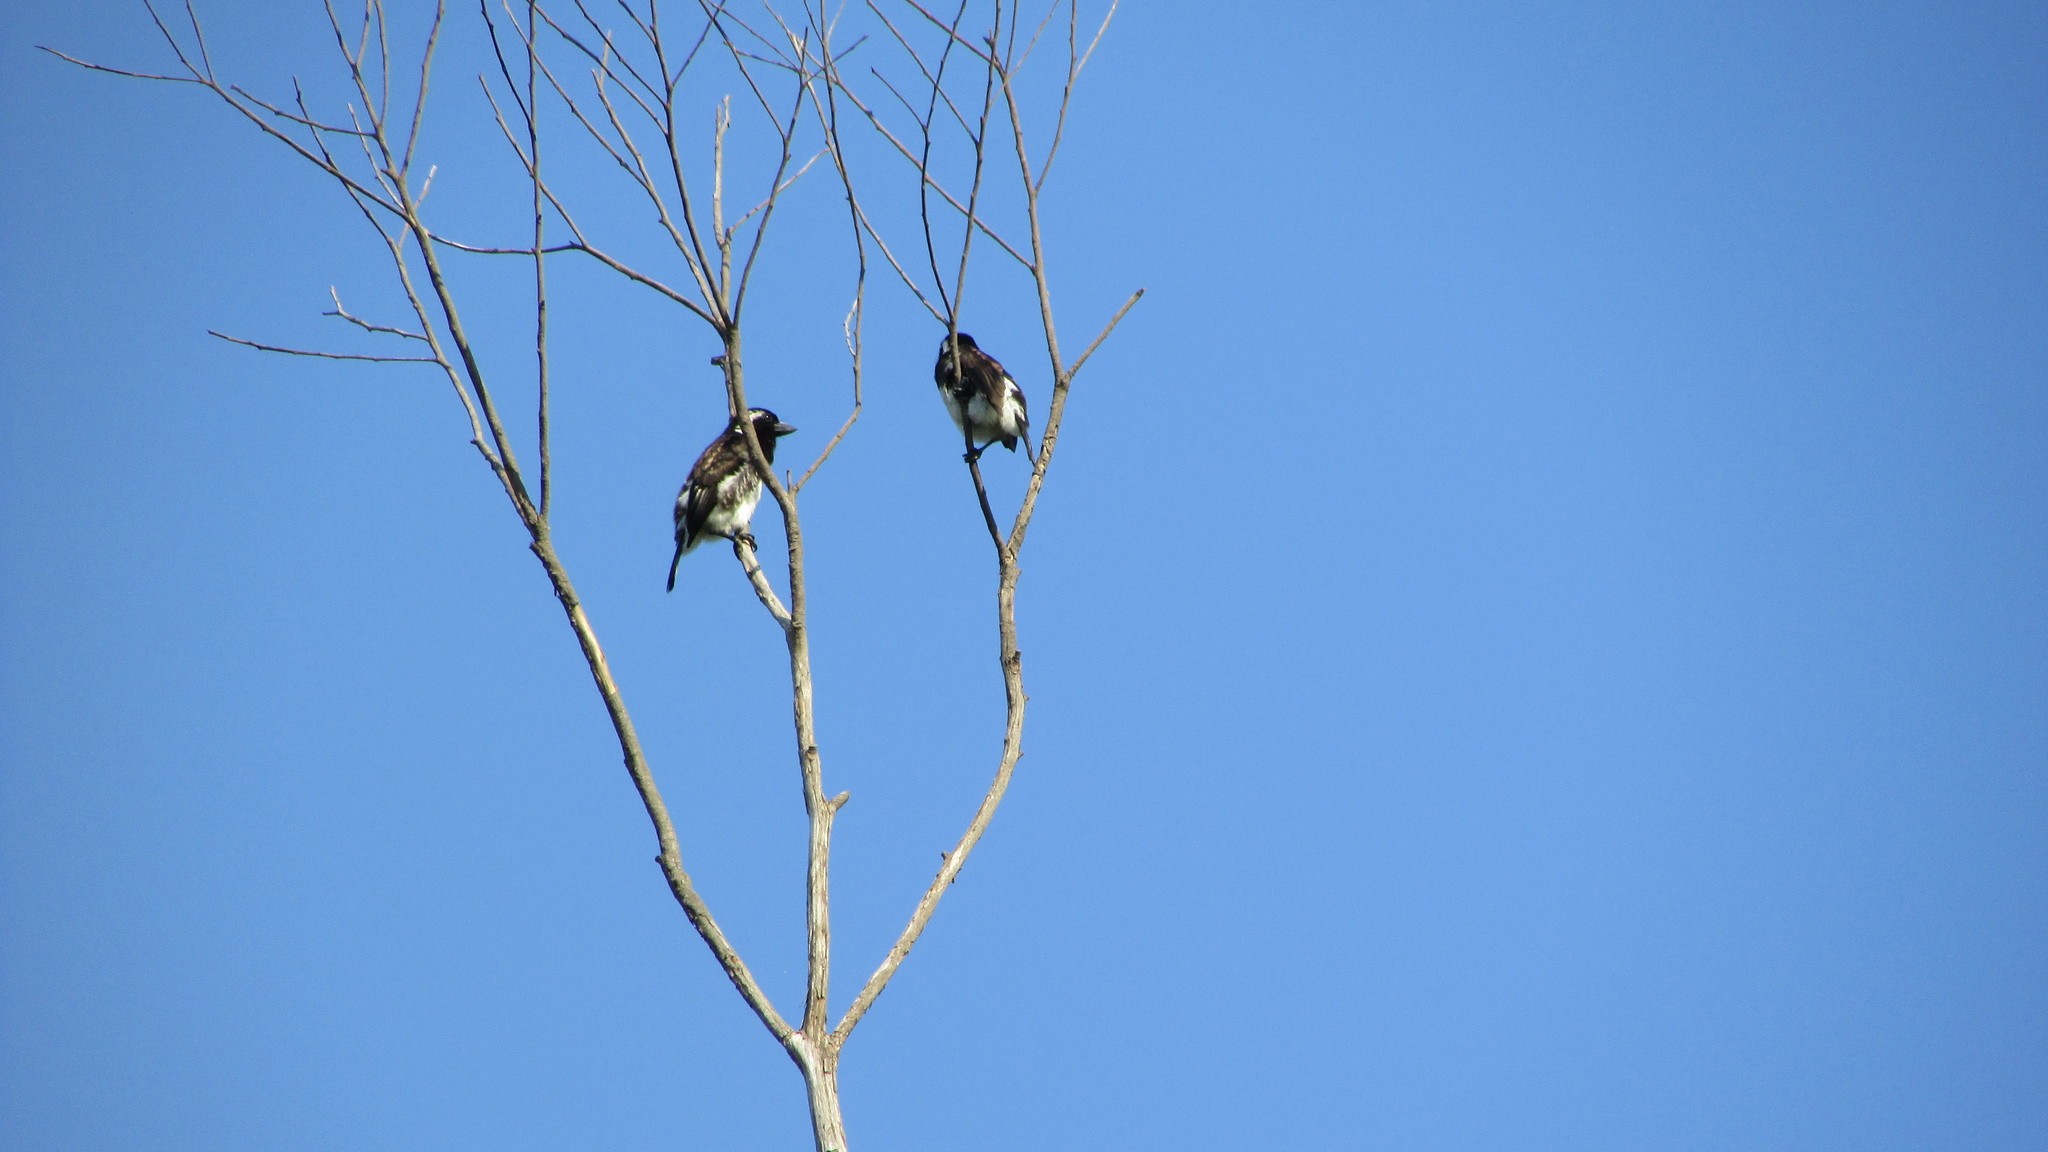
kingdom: Animalia
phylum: Chordata
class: Aves
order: Piciformes
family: Lybiidae
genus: Stactolaema
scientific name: Stactolaema leucotis
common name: White-eared barbet
